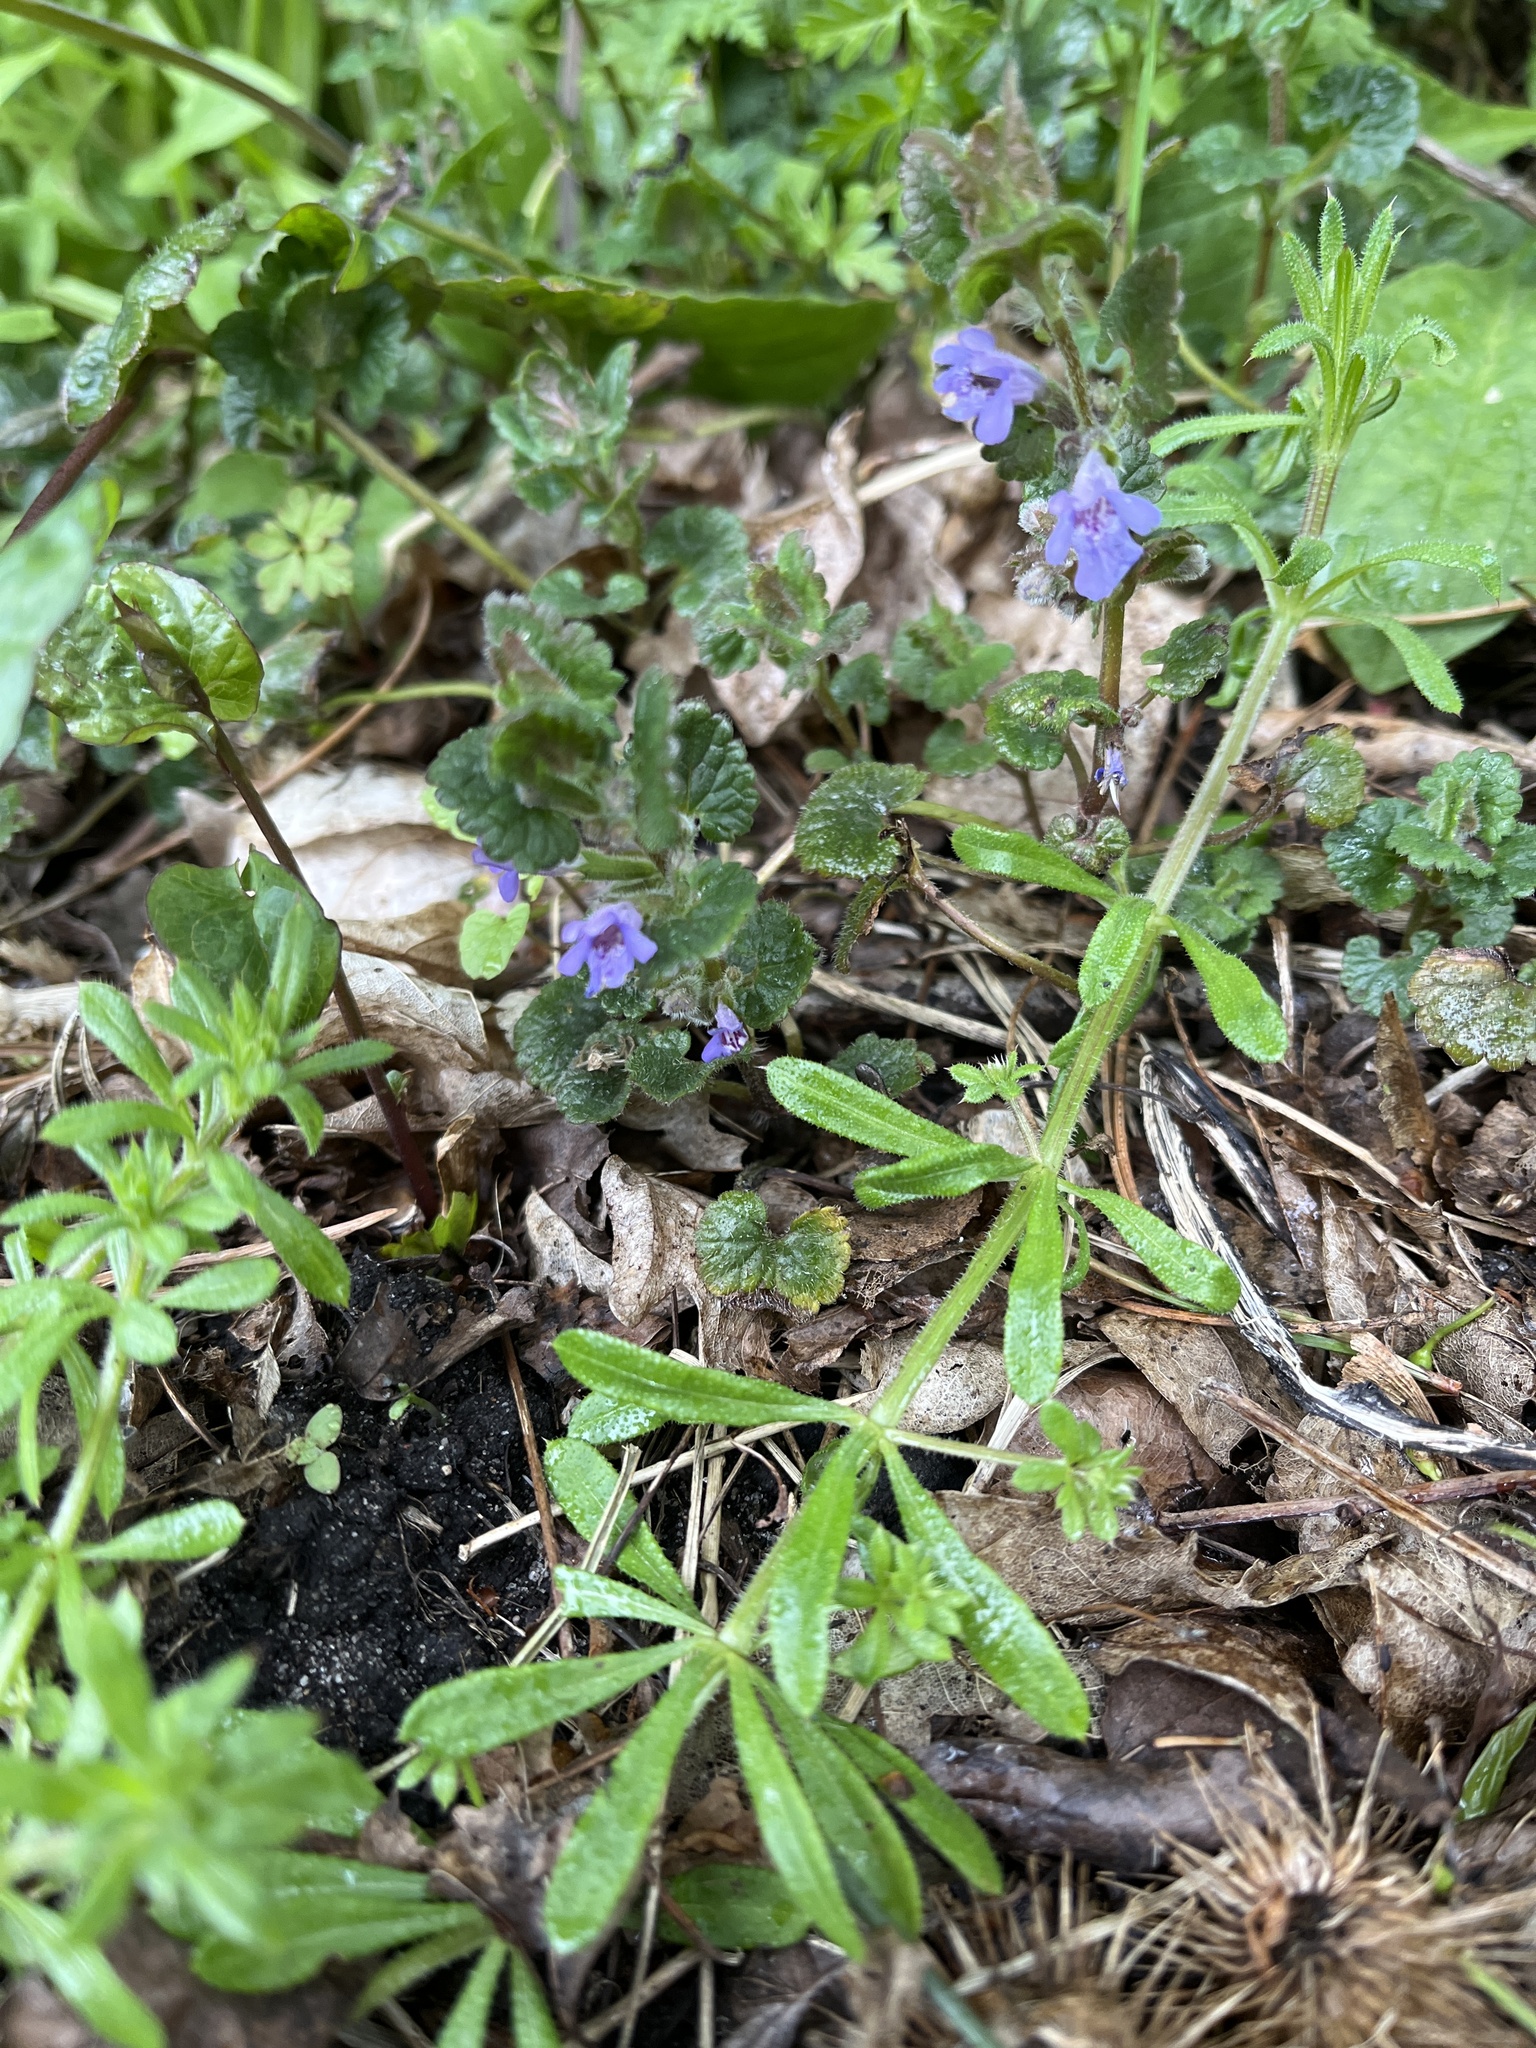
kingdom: Plantae
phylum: Tracheophyta
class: Magnoliopsida
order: Lamiales
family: Lamiaceae
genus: Glechoma
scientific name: Glechoma hederacea
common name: Ground ivy
